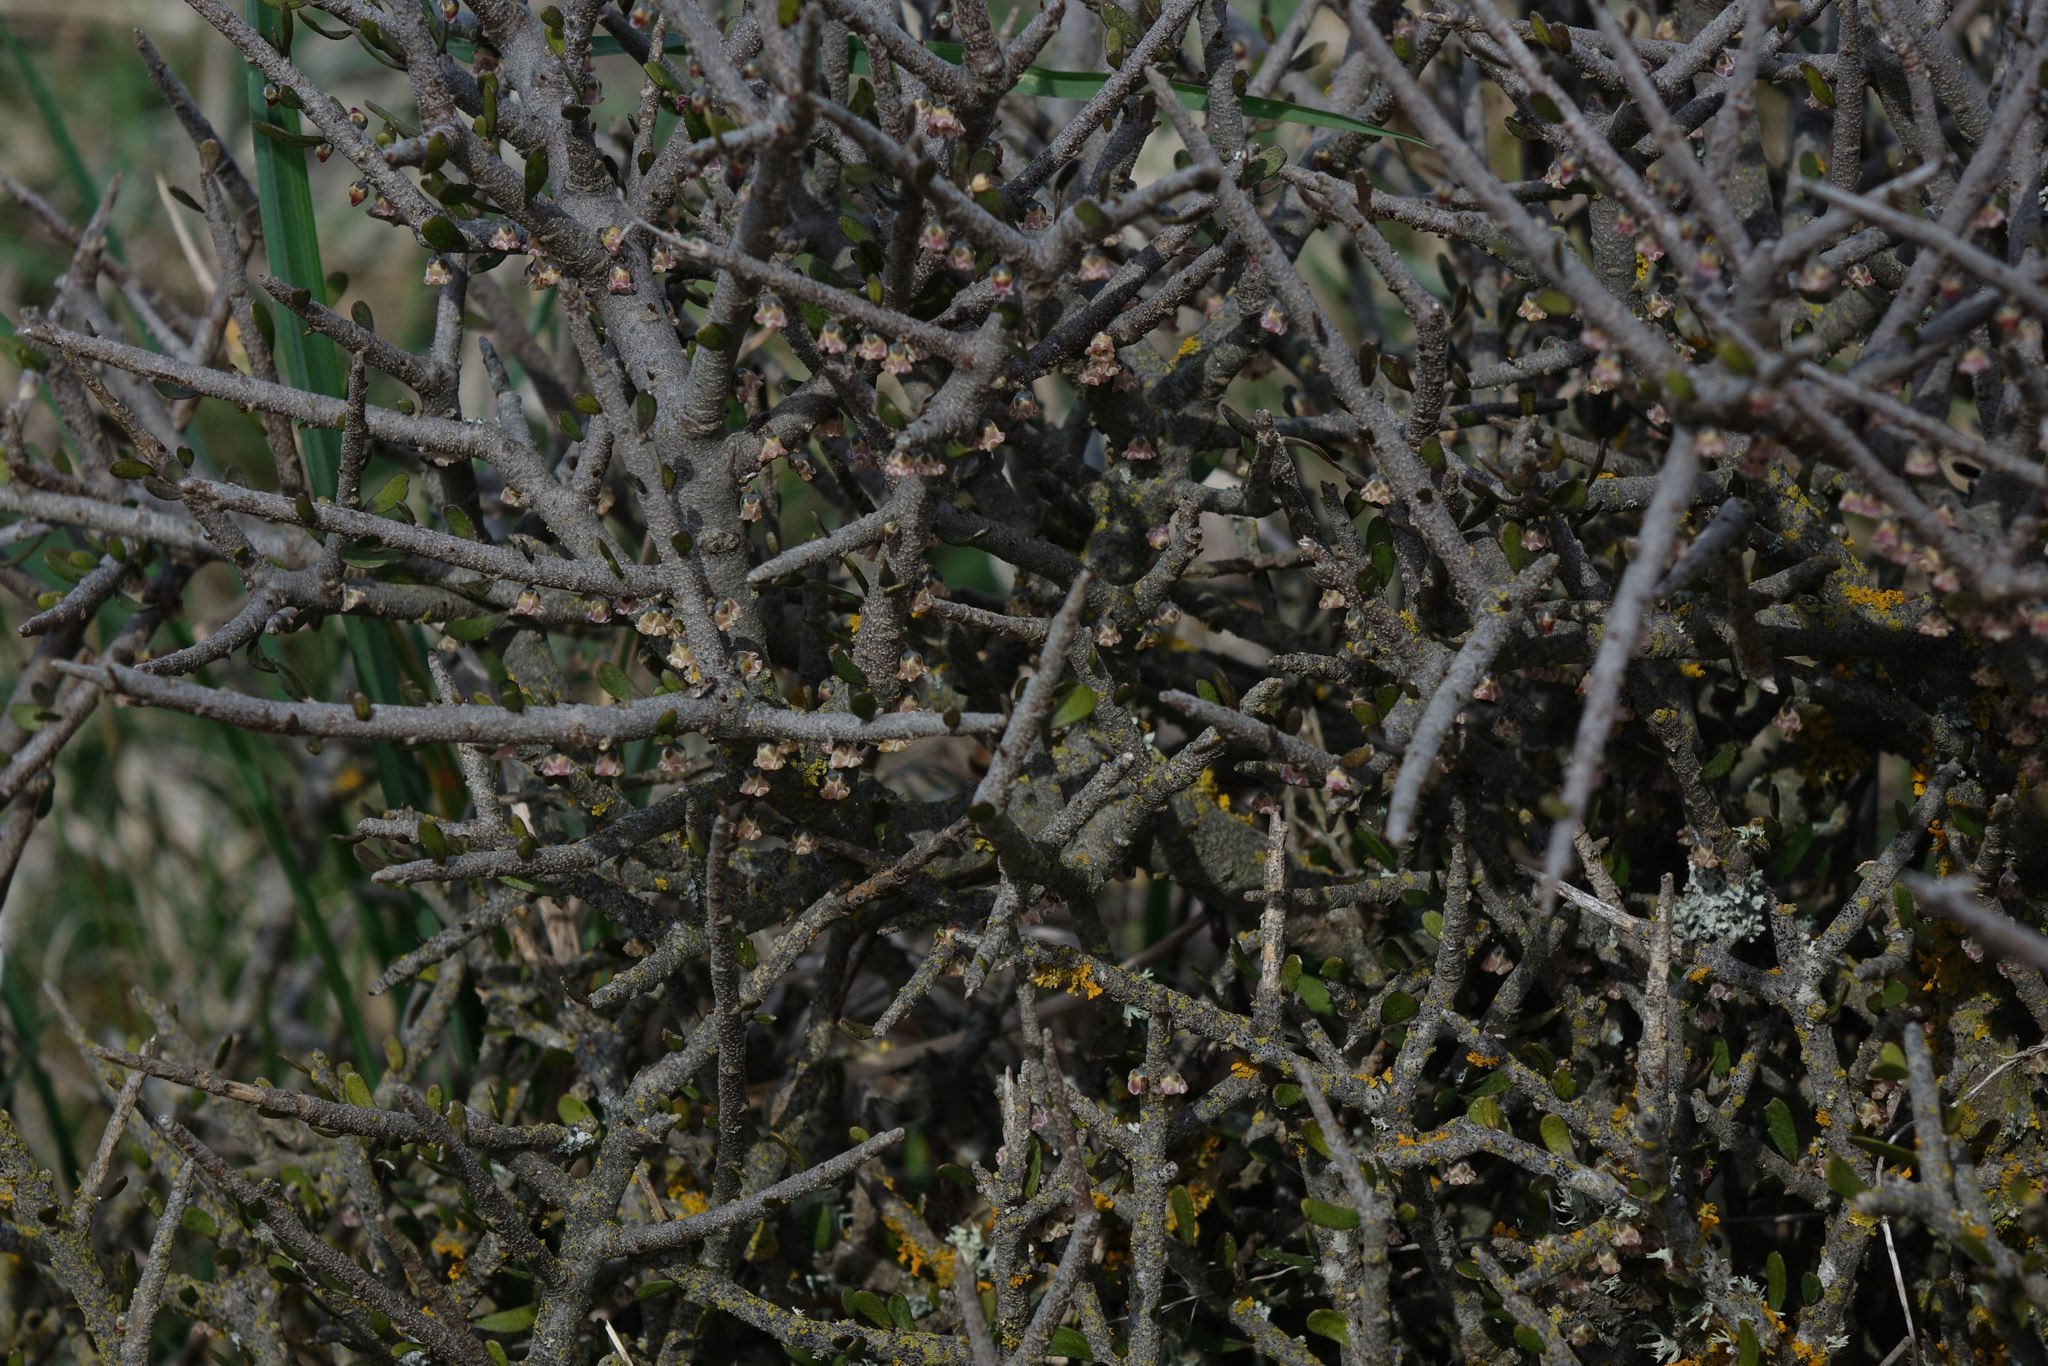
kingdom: Plantae
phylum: Tracheophyta
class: Magnoliopsida
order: Malpighiales
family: Violaceae
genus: Melicytus
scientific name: Melicytus alpinus
